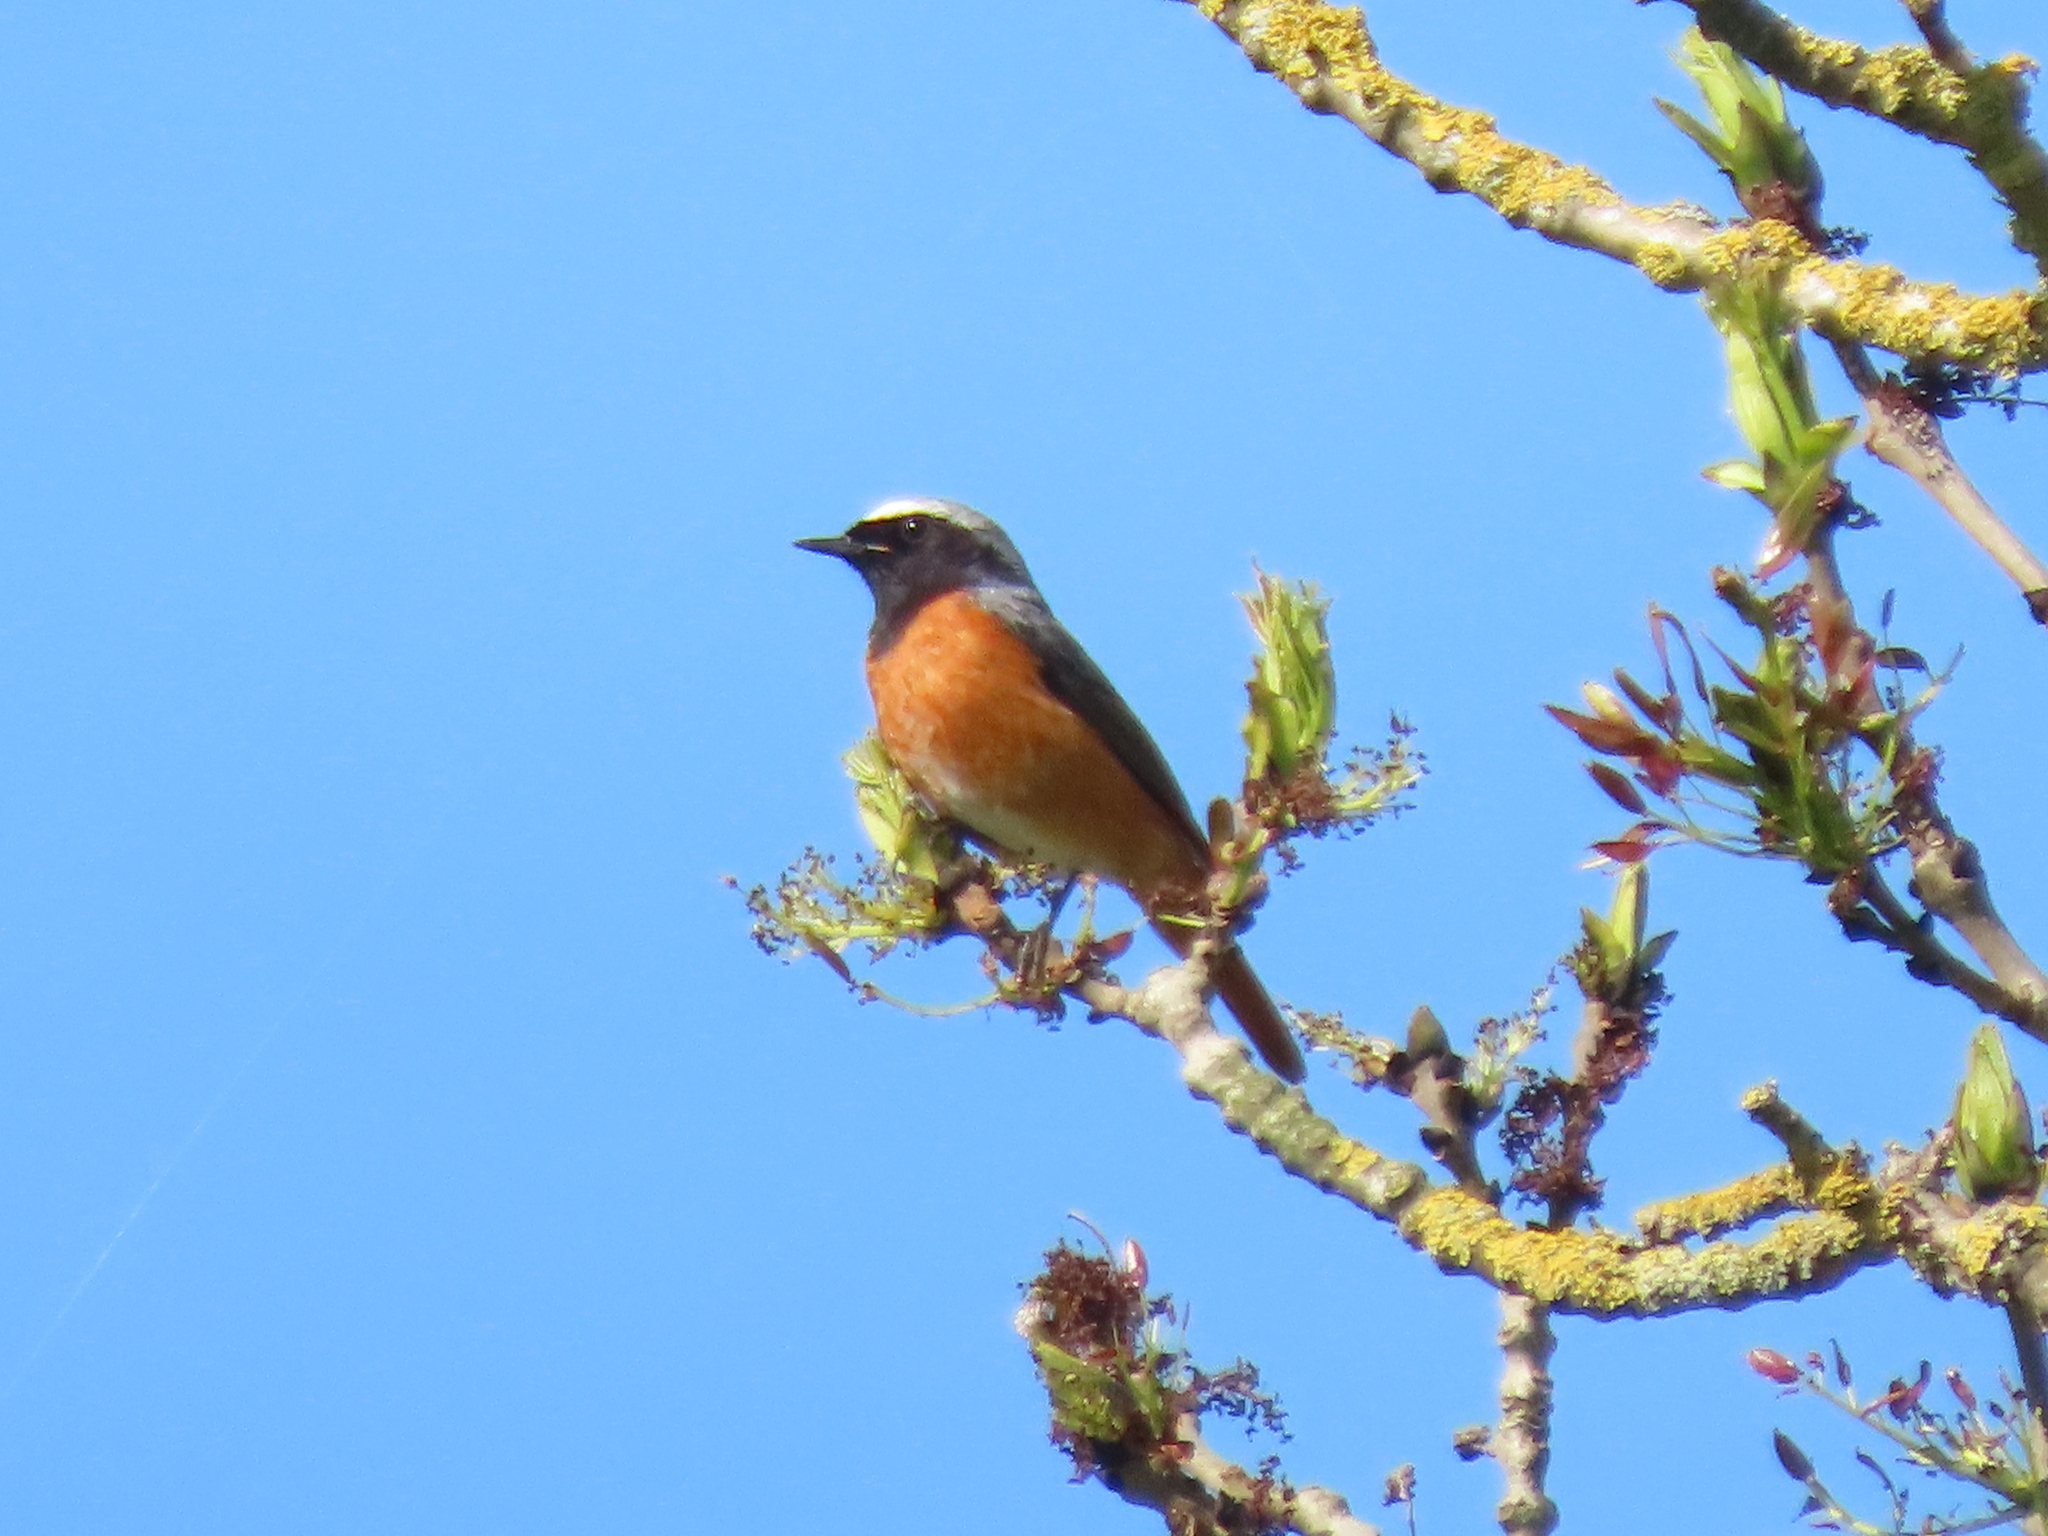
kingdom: Animalia
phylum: Chordata
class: Aves
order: Passeriformes
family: Muscicapidae
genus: Phoenicurus
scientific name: Phoenicurus phoenicurus
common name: Common redstart
